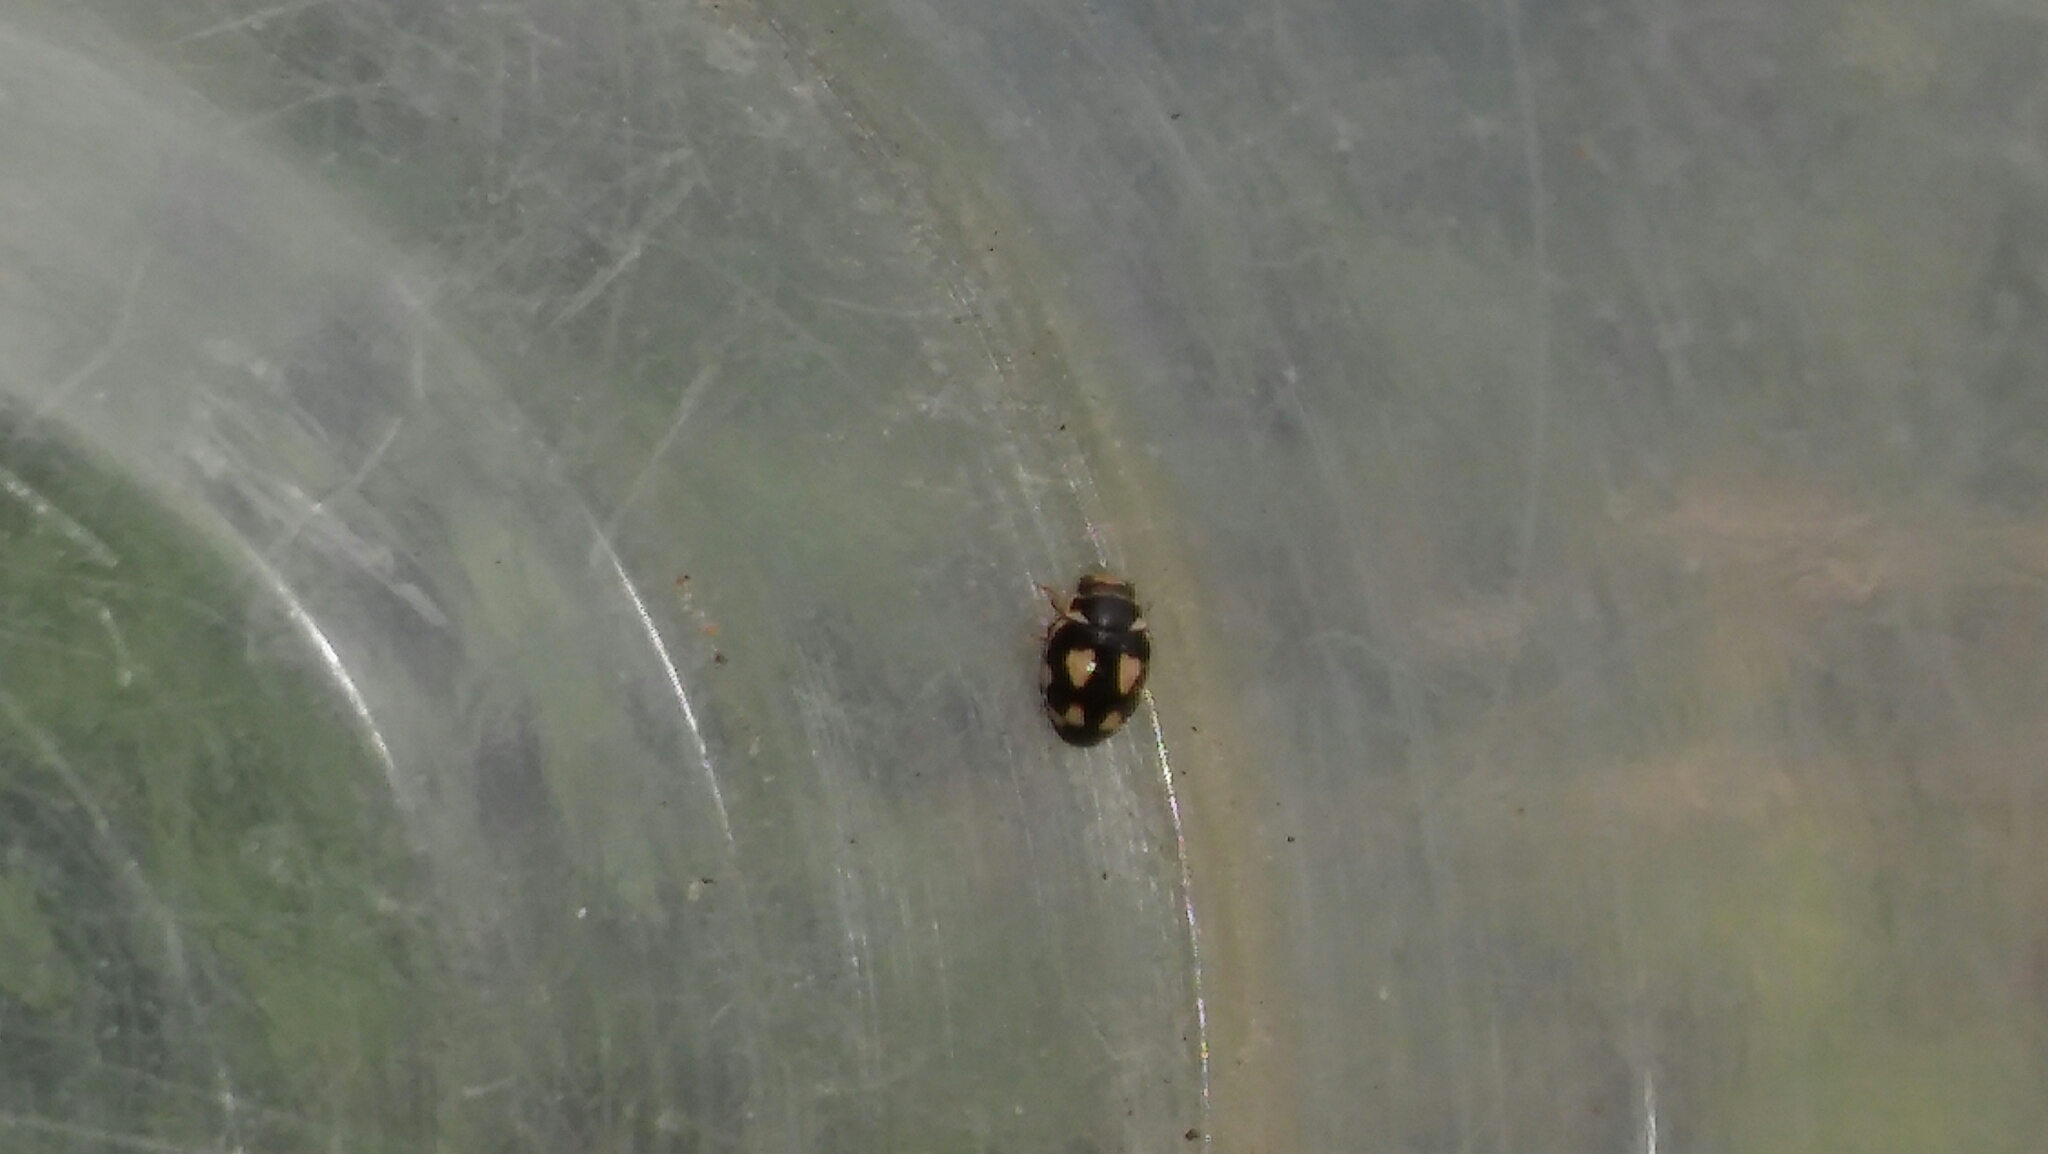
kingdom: Animalia
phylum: Arthropoda
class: Insecta
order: Coleoptera
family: Coccinellidae
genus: Hyperaspis
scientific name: Hyperaspis festiva
